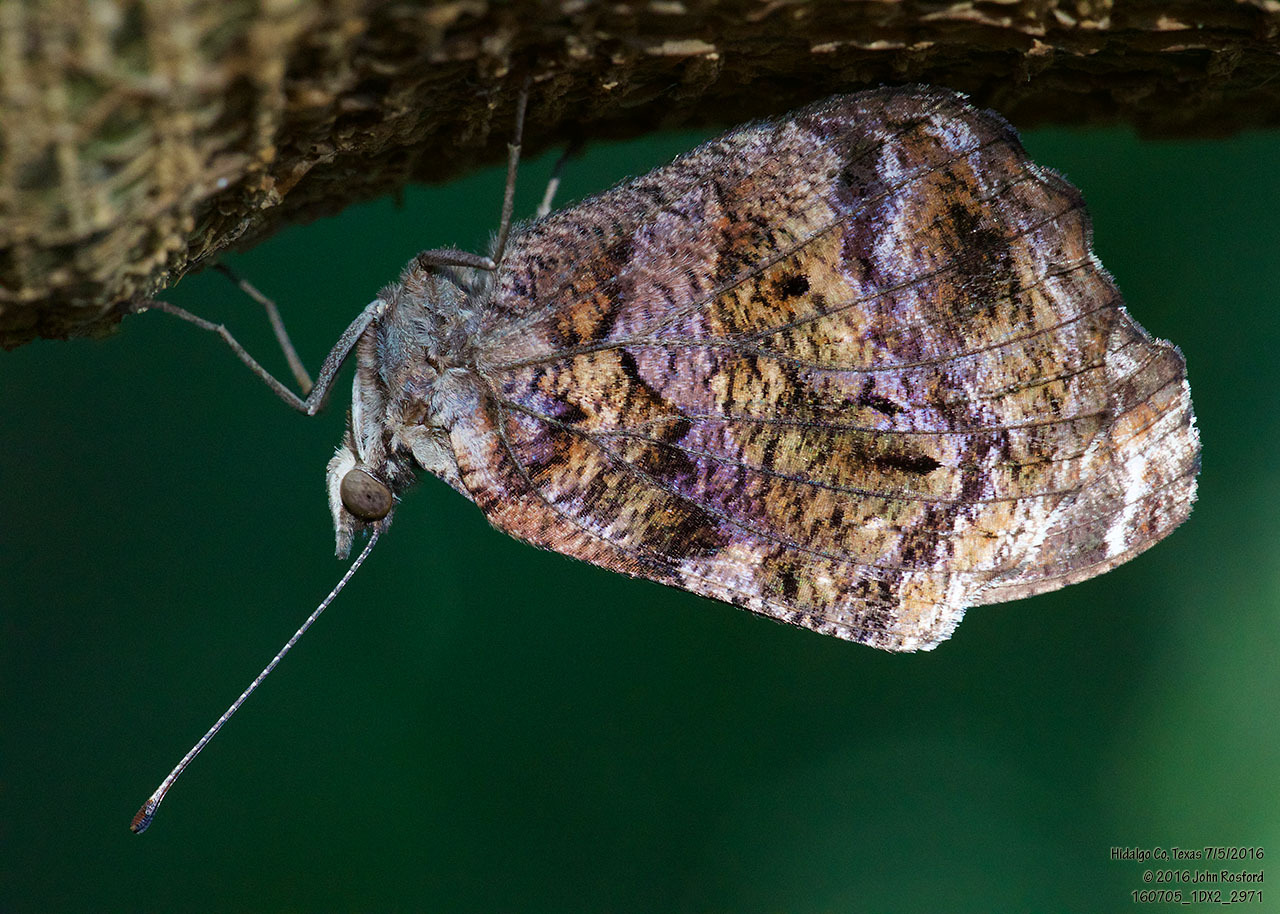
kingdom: Animalia
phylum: Arthropoda
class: Insecta
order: Lepidoptera
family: Nymphalidae
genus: Myscelia
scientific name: Myscelia ethusa
